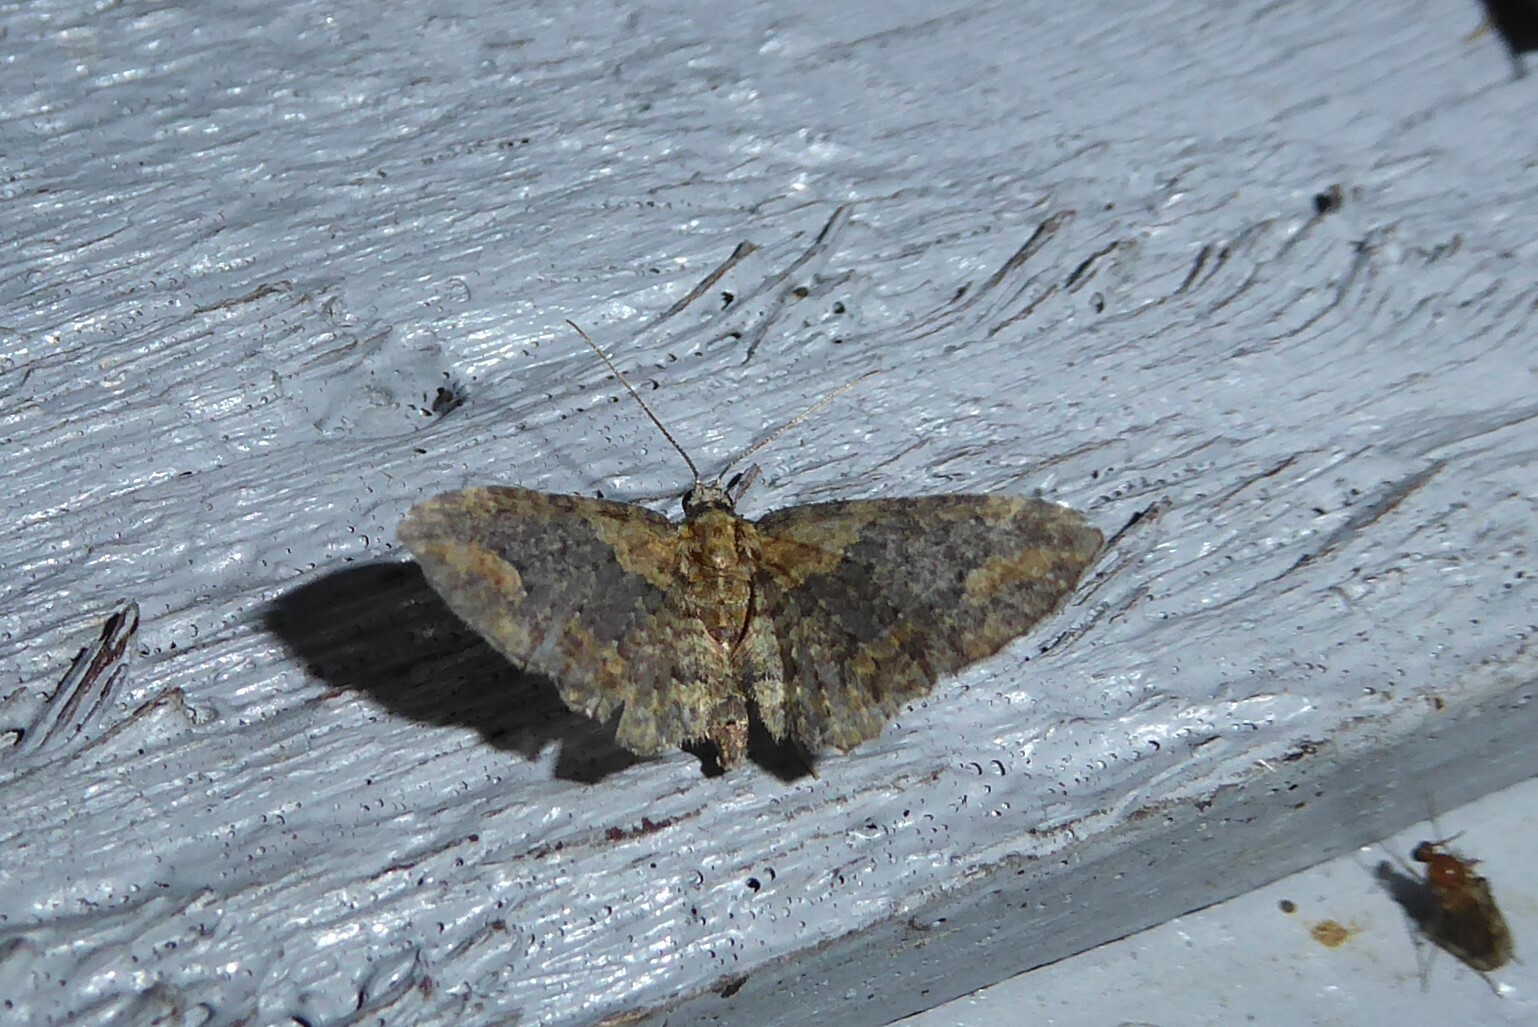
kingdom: Animalia
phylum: Arthropoda
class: Insecta
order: Lepidoptera
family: Geometridae
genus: Pasiphilodes
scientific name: Pasiphilodes testulata
